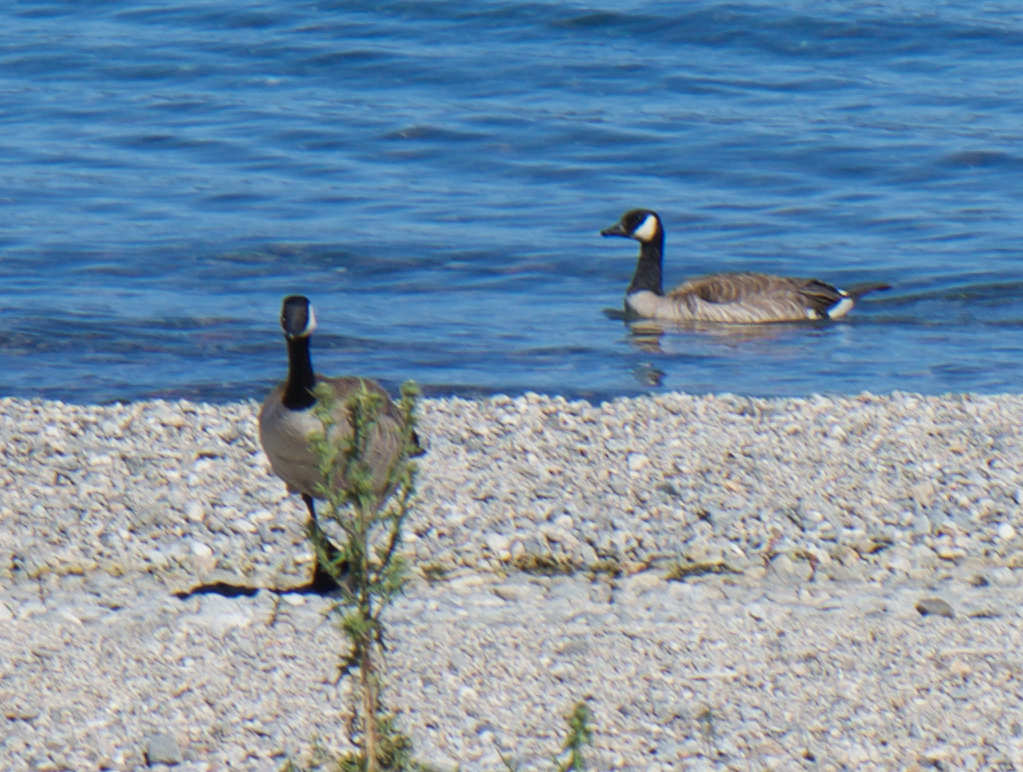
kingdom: Animalia
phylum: Chordata
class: Aves
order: Anseriformes
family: Anatidae
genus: Branta
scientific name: Branta canadensis
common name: Canada goose
